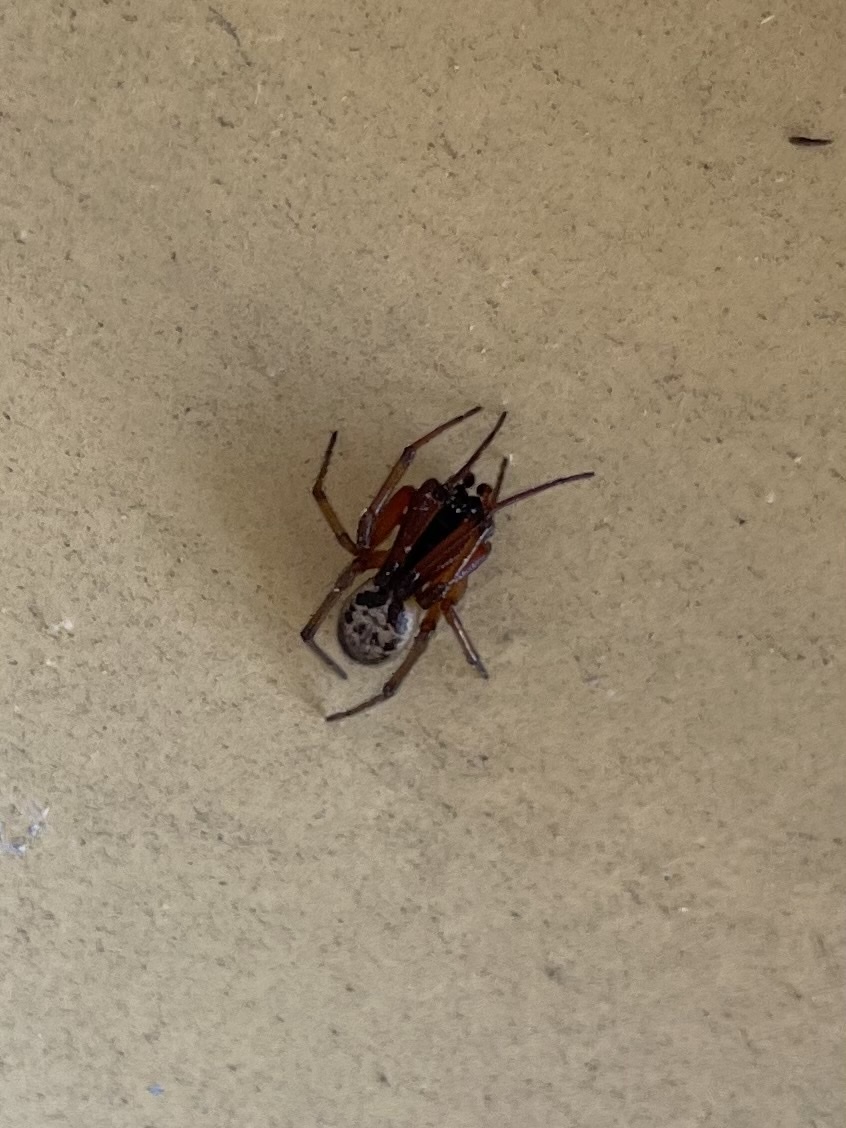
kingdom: Animalia
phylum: Arthropoda
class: Arachnida
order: Araneae
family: Theridiidae
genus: Steatoda
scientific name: Steatoda nobilis
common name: Cobweb weaver
